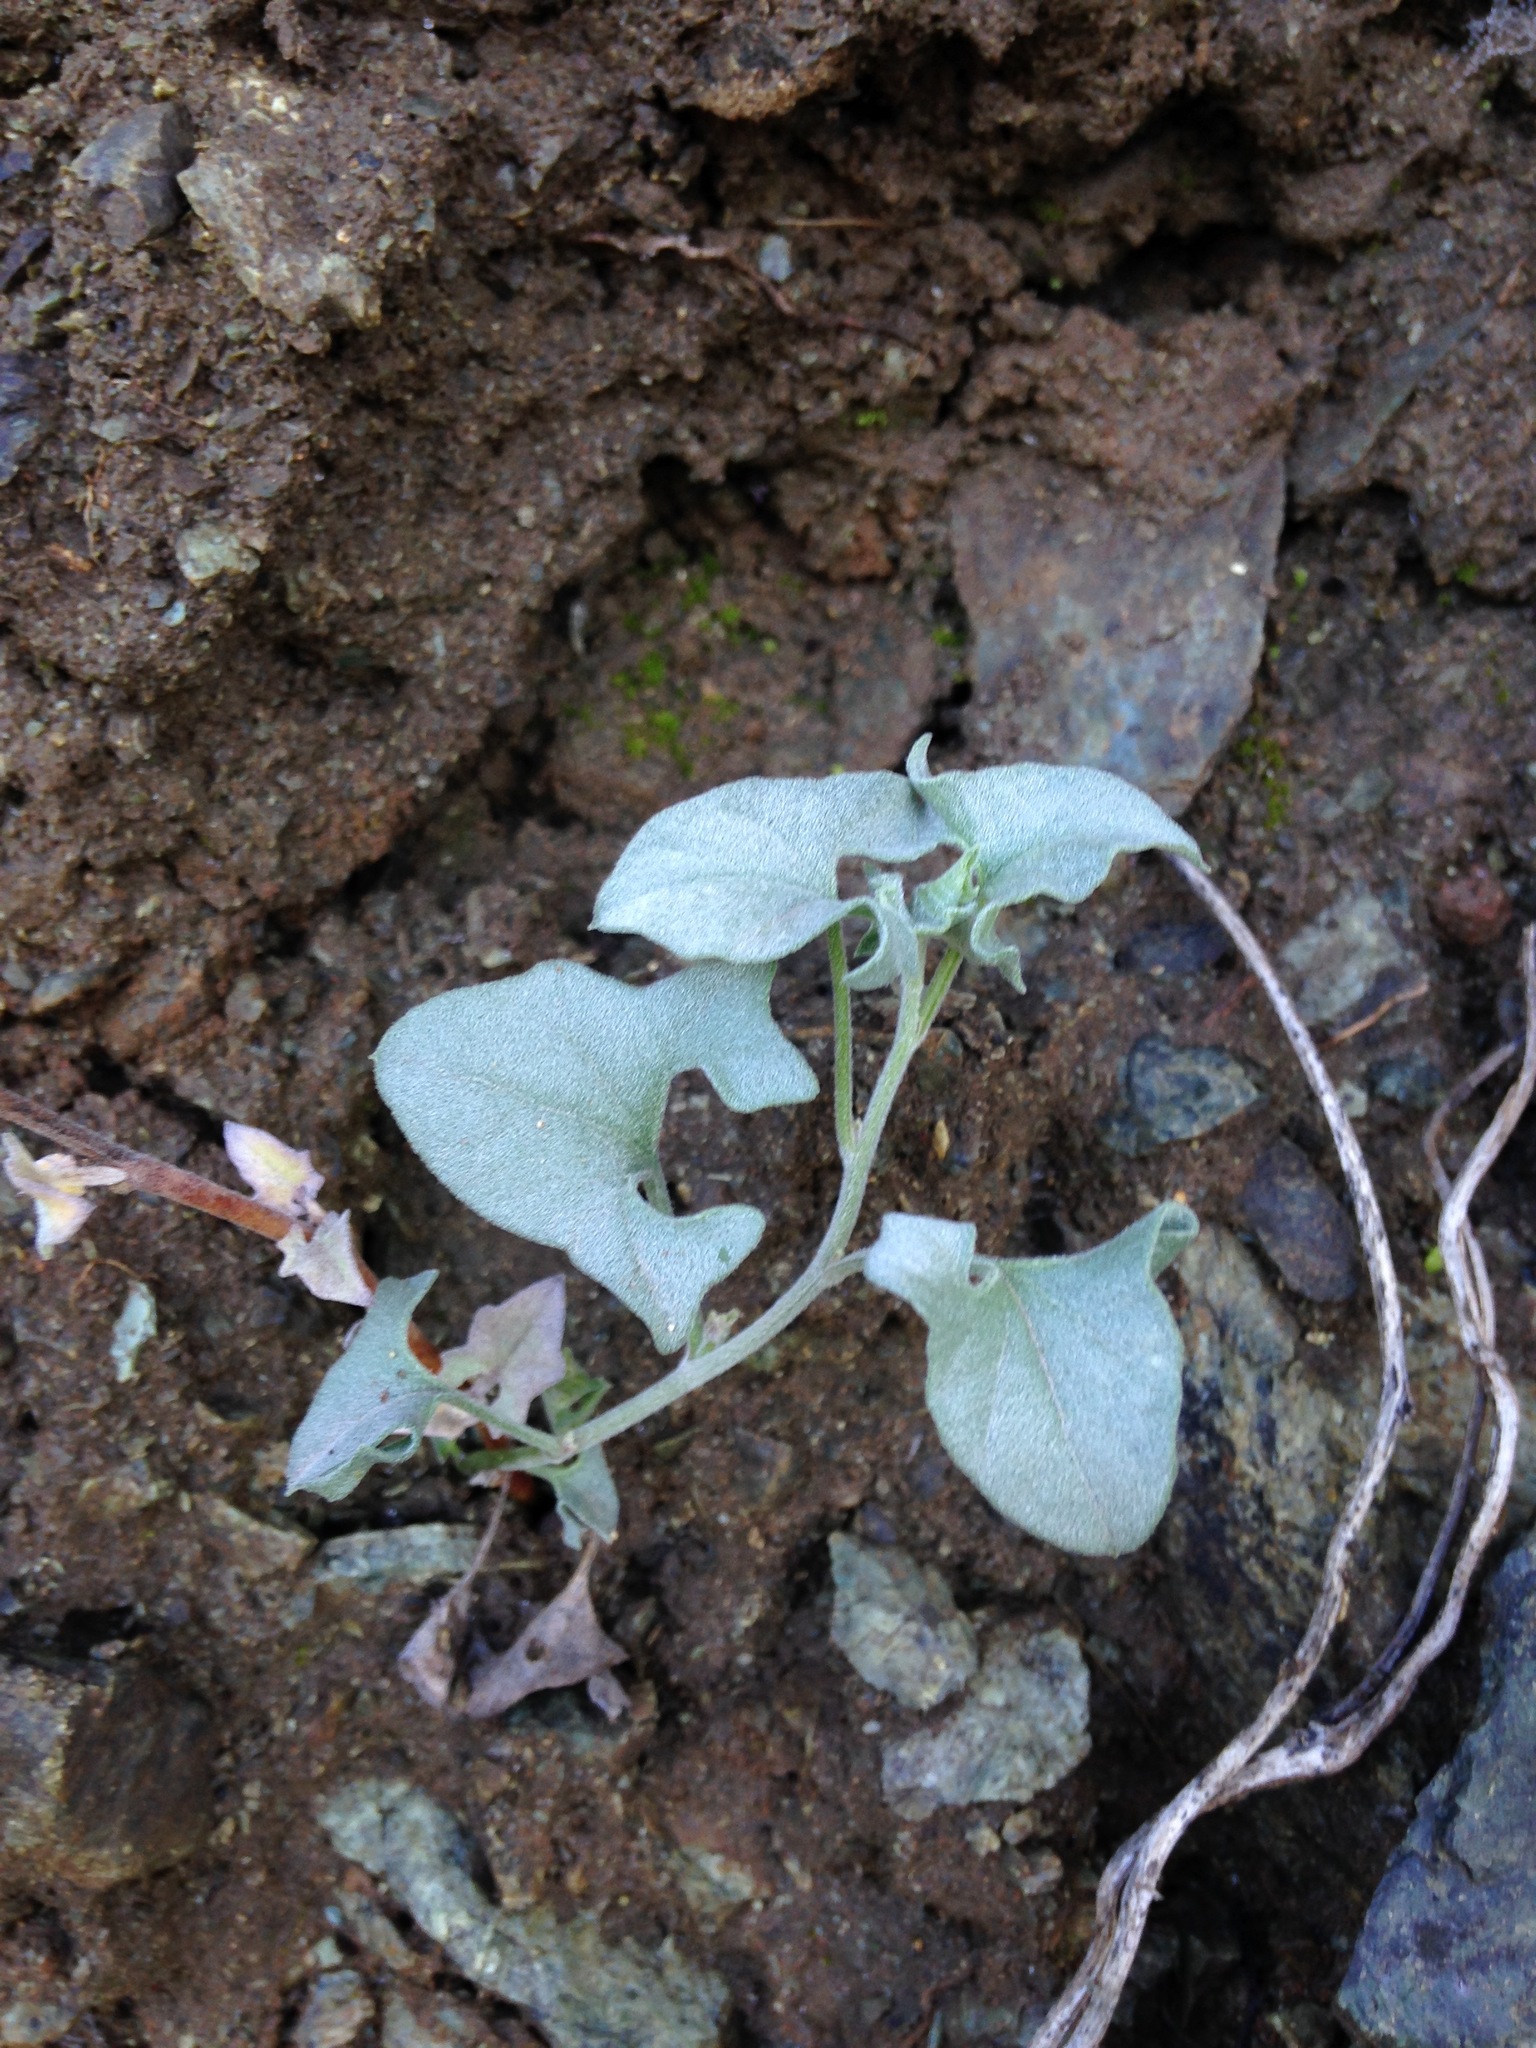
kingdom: Plantae
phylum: Tracheophyta
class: Magnoliopsida
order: Solanales
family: Convolvulaceae
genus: Calystegia
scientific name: Calystegia collina
